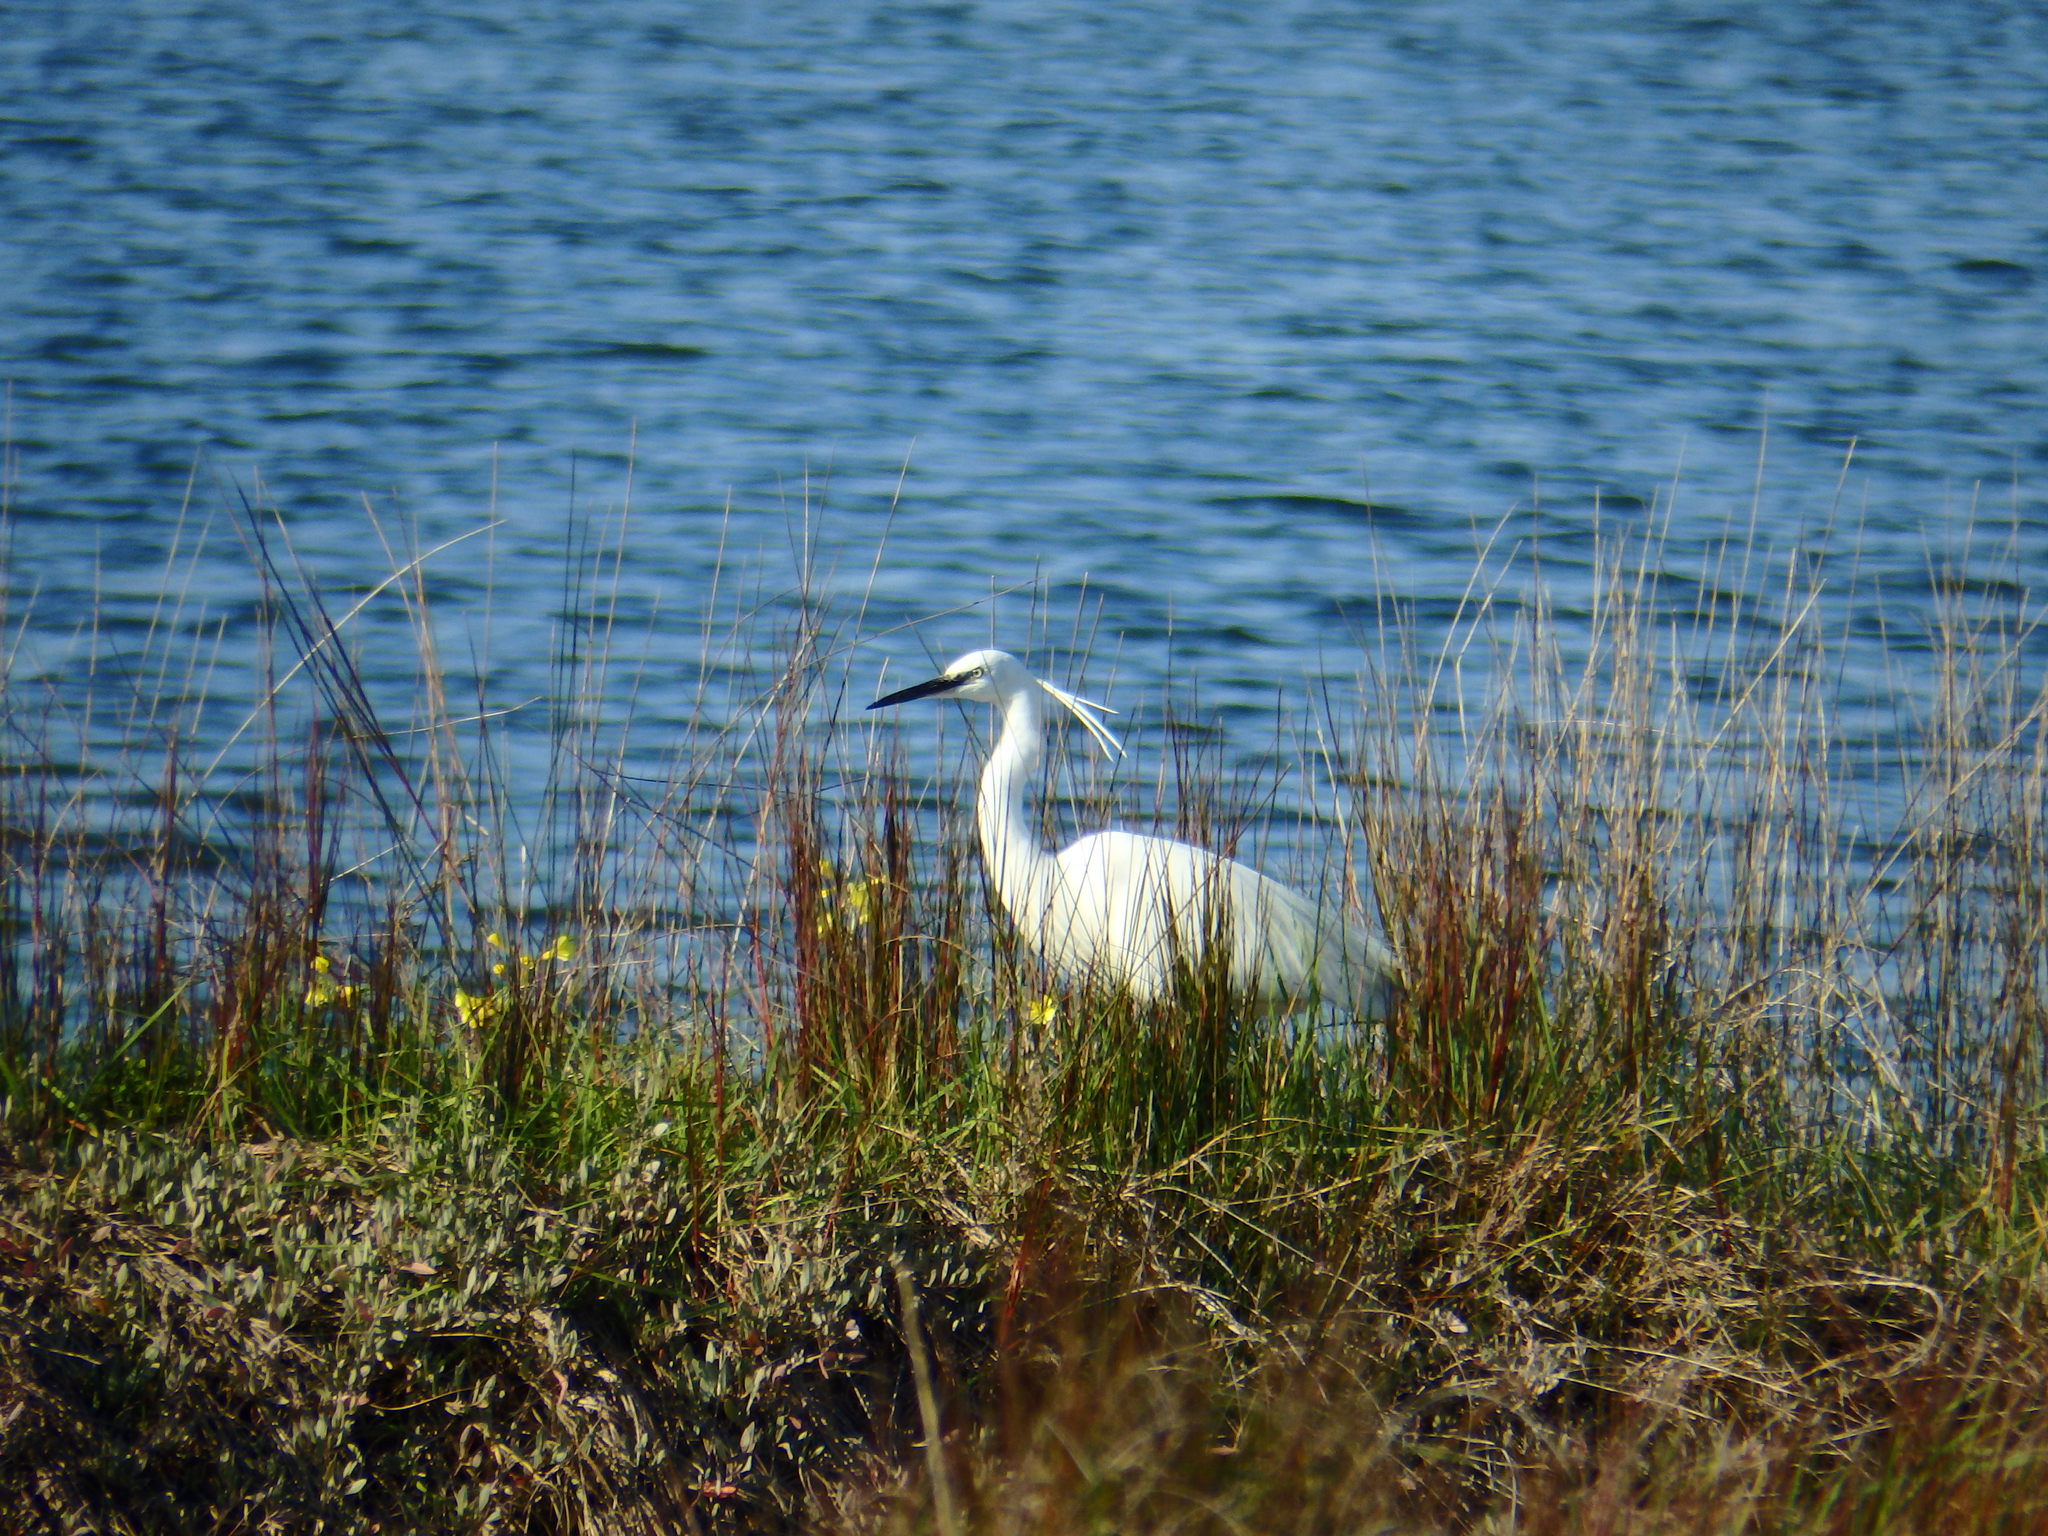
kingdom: Animalia
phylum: Chordata
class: Aves
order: Pelecaniformes
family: Ardeidae
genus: Egretta
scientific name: Egretta garzetta
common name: Little egret
